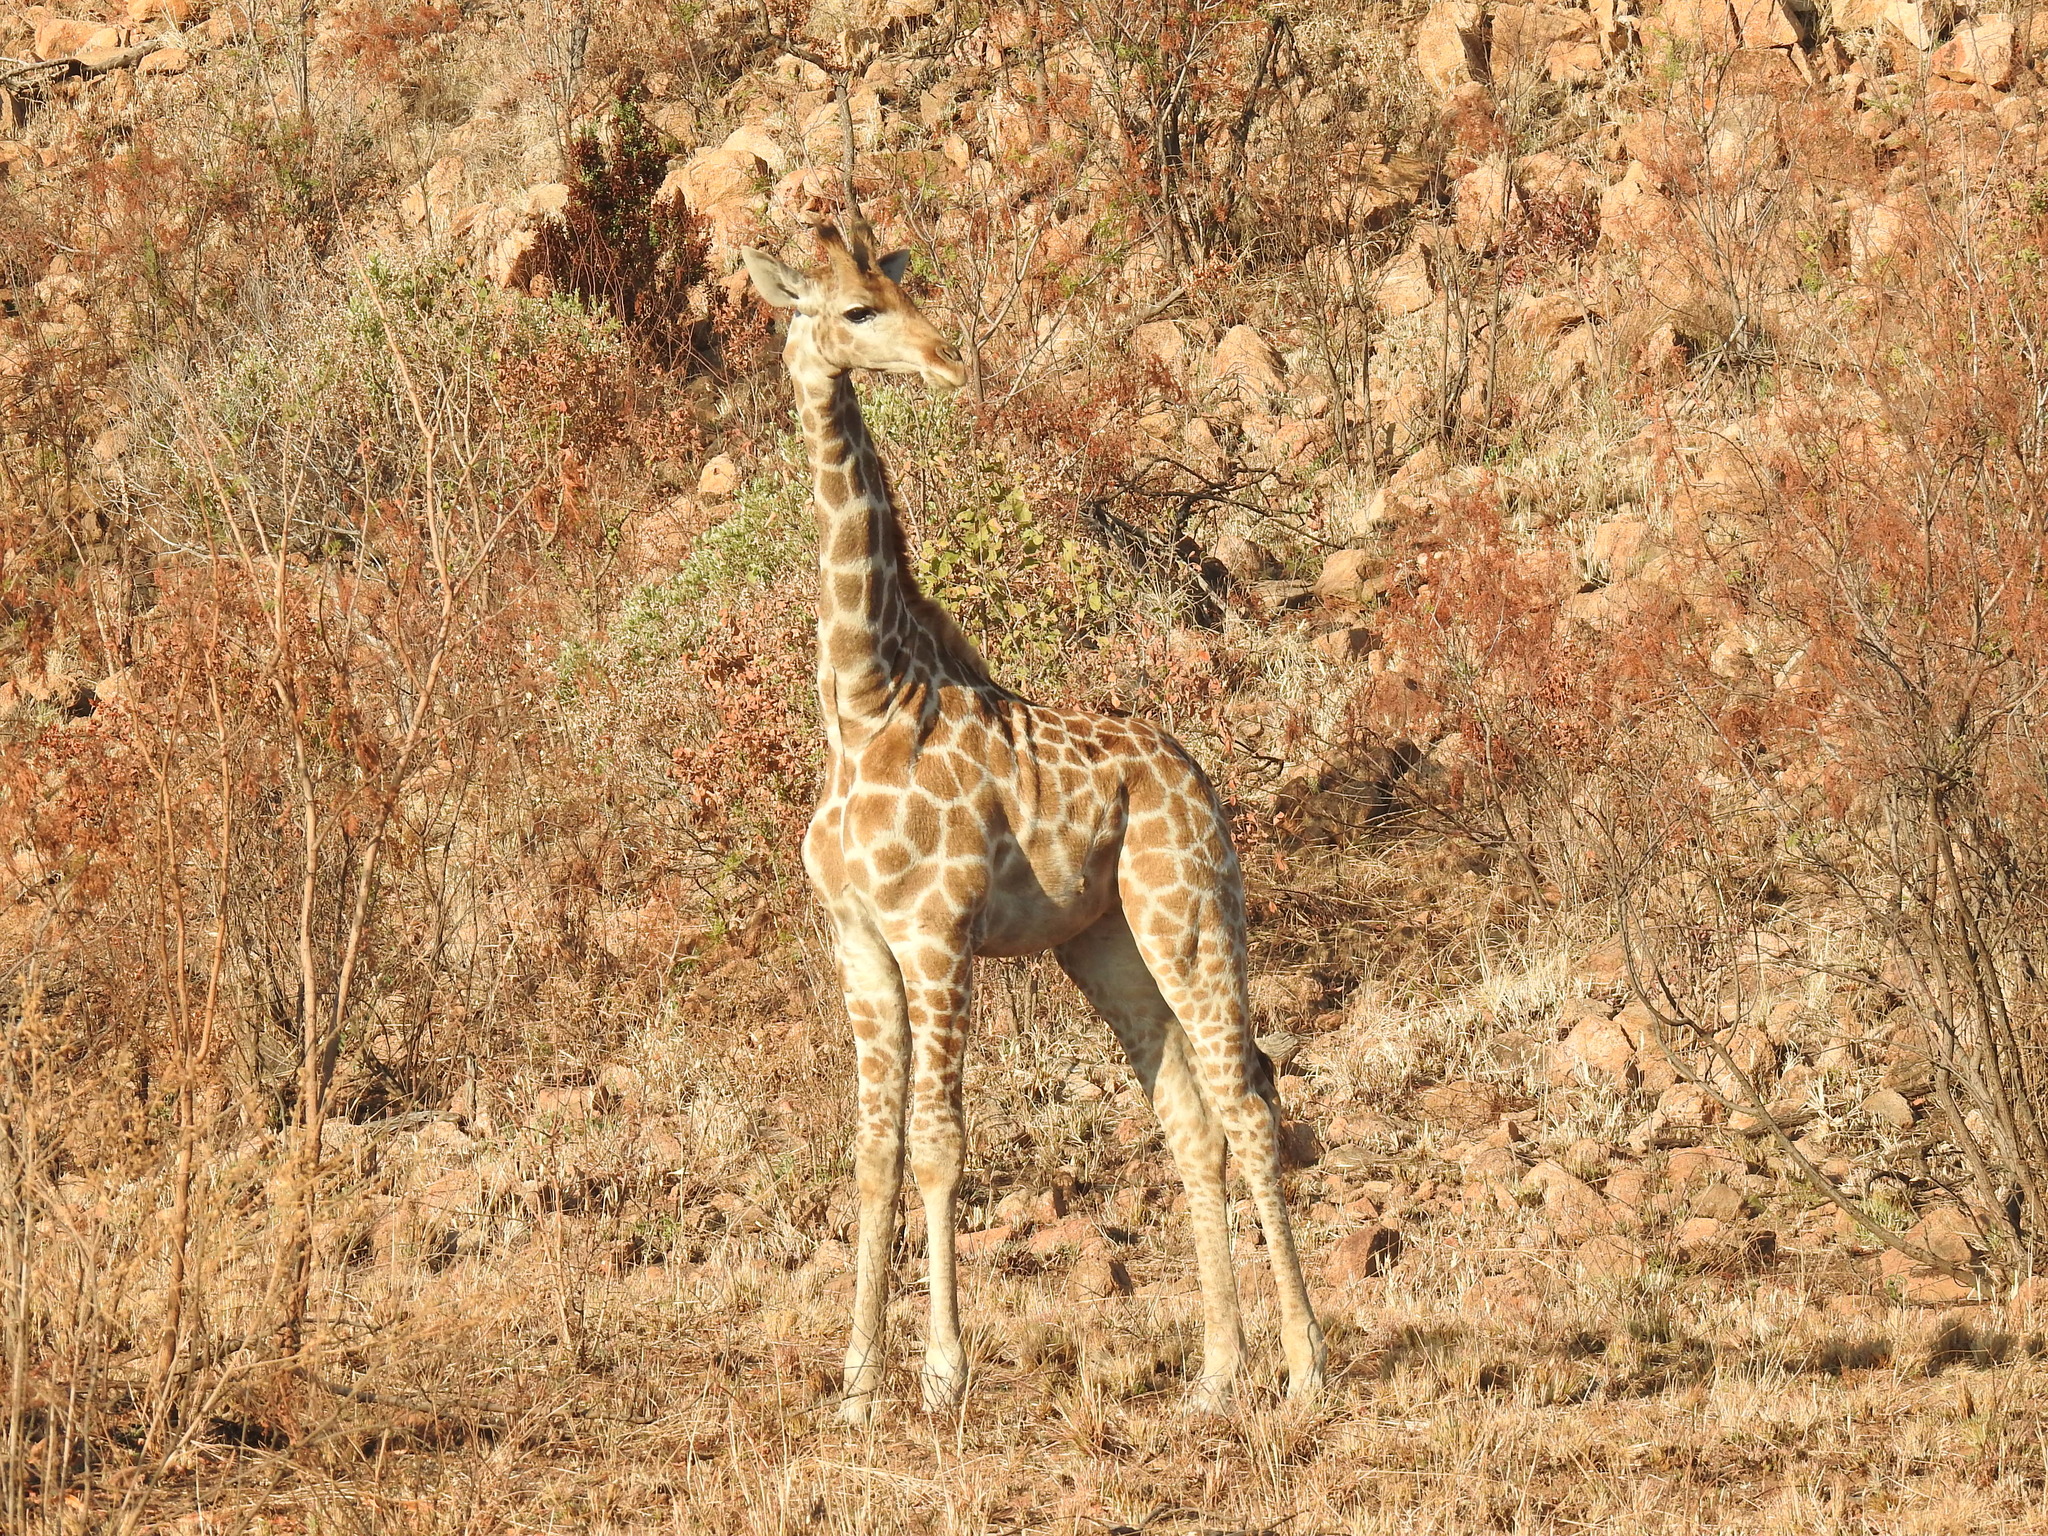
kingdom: Animalia
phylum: Chordata
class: Mammalia
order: Artiodactyla
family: Giraffidae
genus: Giraffa
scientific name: Giraffa giraffa
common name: Southern giraffe
